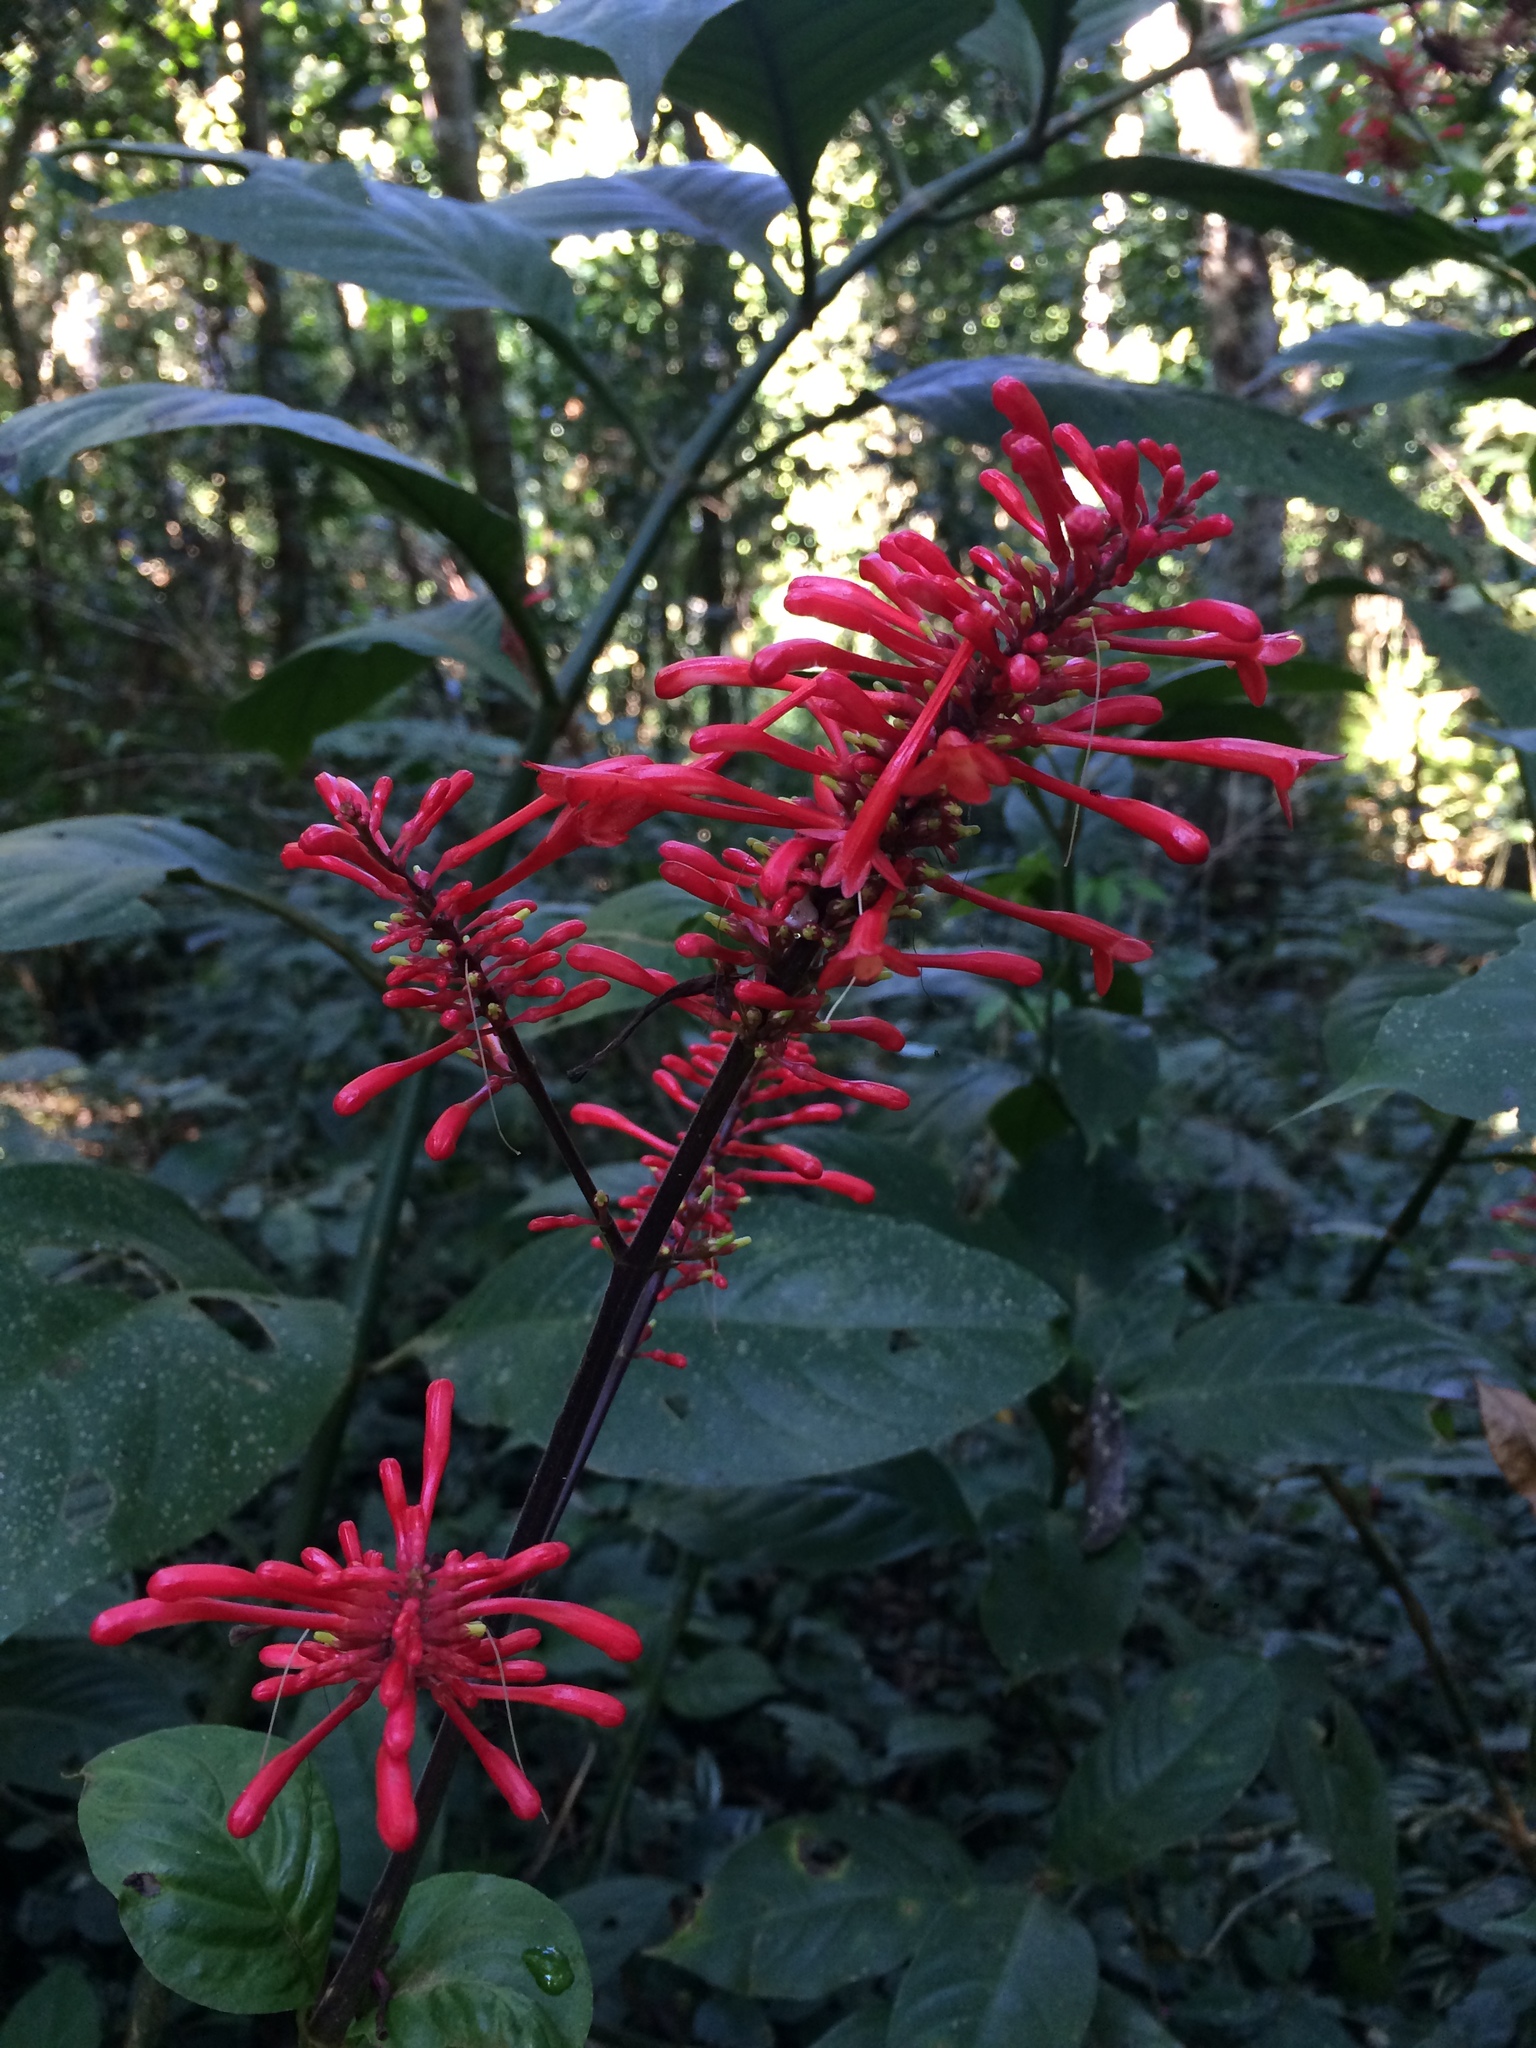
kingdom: Plantae
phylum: Tracheophyta
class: Magnoliopsida
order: Lamiales
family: Acanthaceae
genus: Odontonema
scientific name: Odontonema tubaeforme
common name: Firespike
